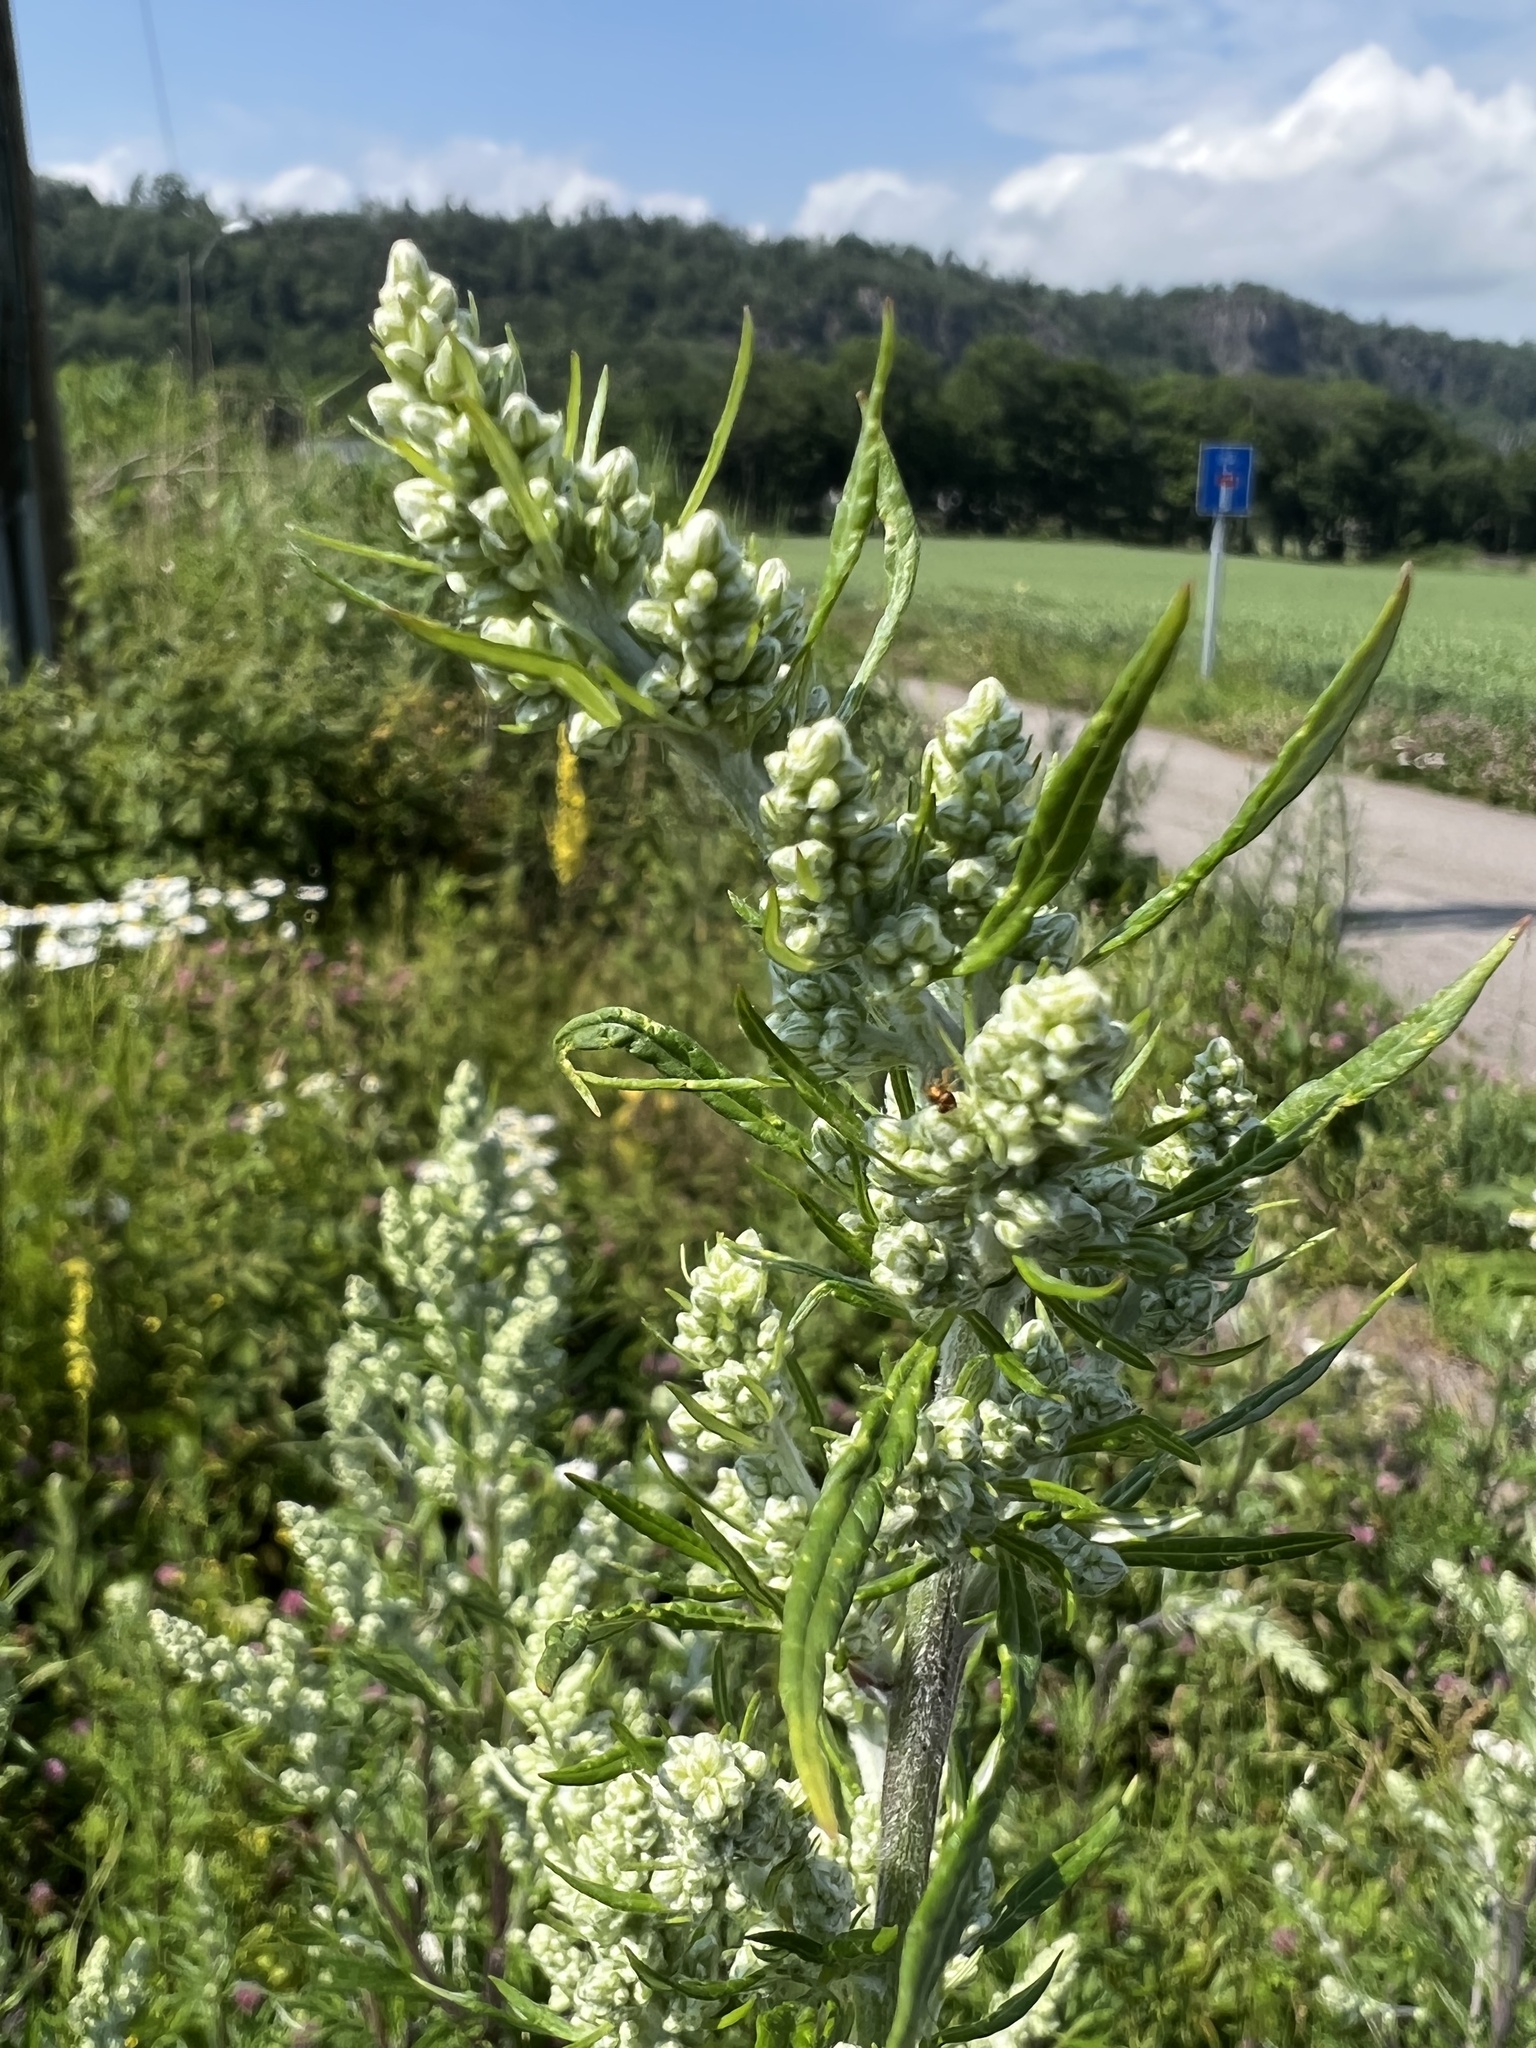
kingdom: Plantae
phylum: Tracheophyta
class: Magnoliopsida
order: Asterales
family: Asteraceae
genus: Artemisia
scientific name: Artemisia vulgaris
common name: Mugwort
